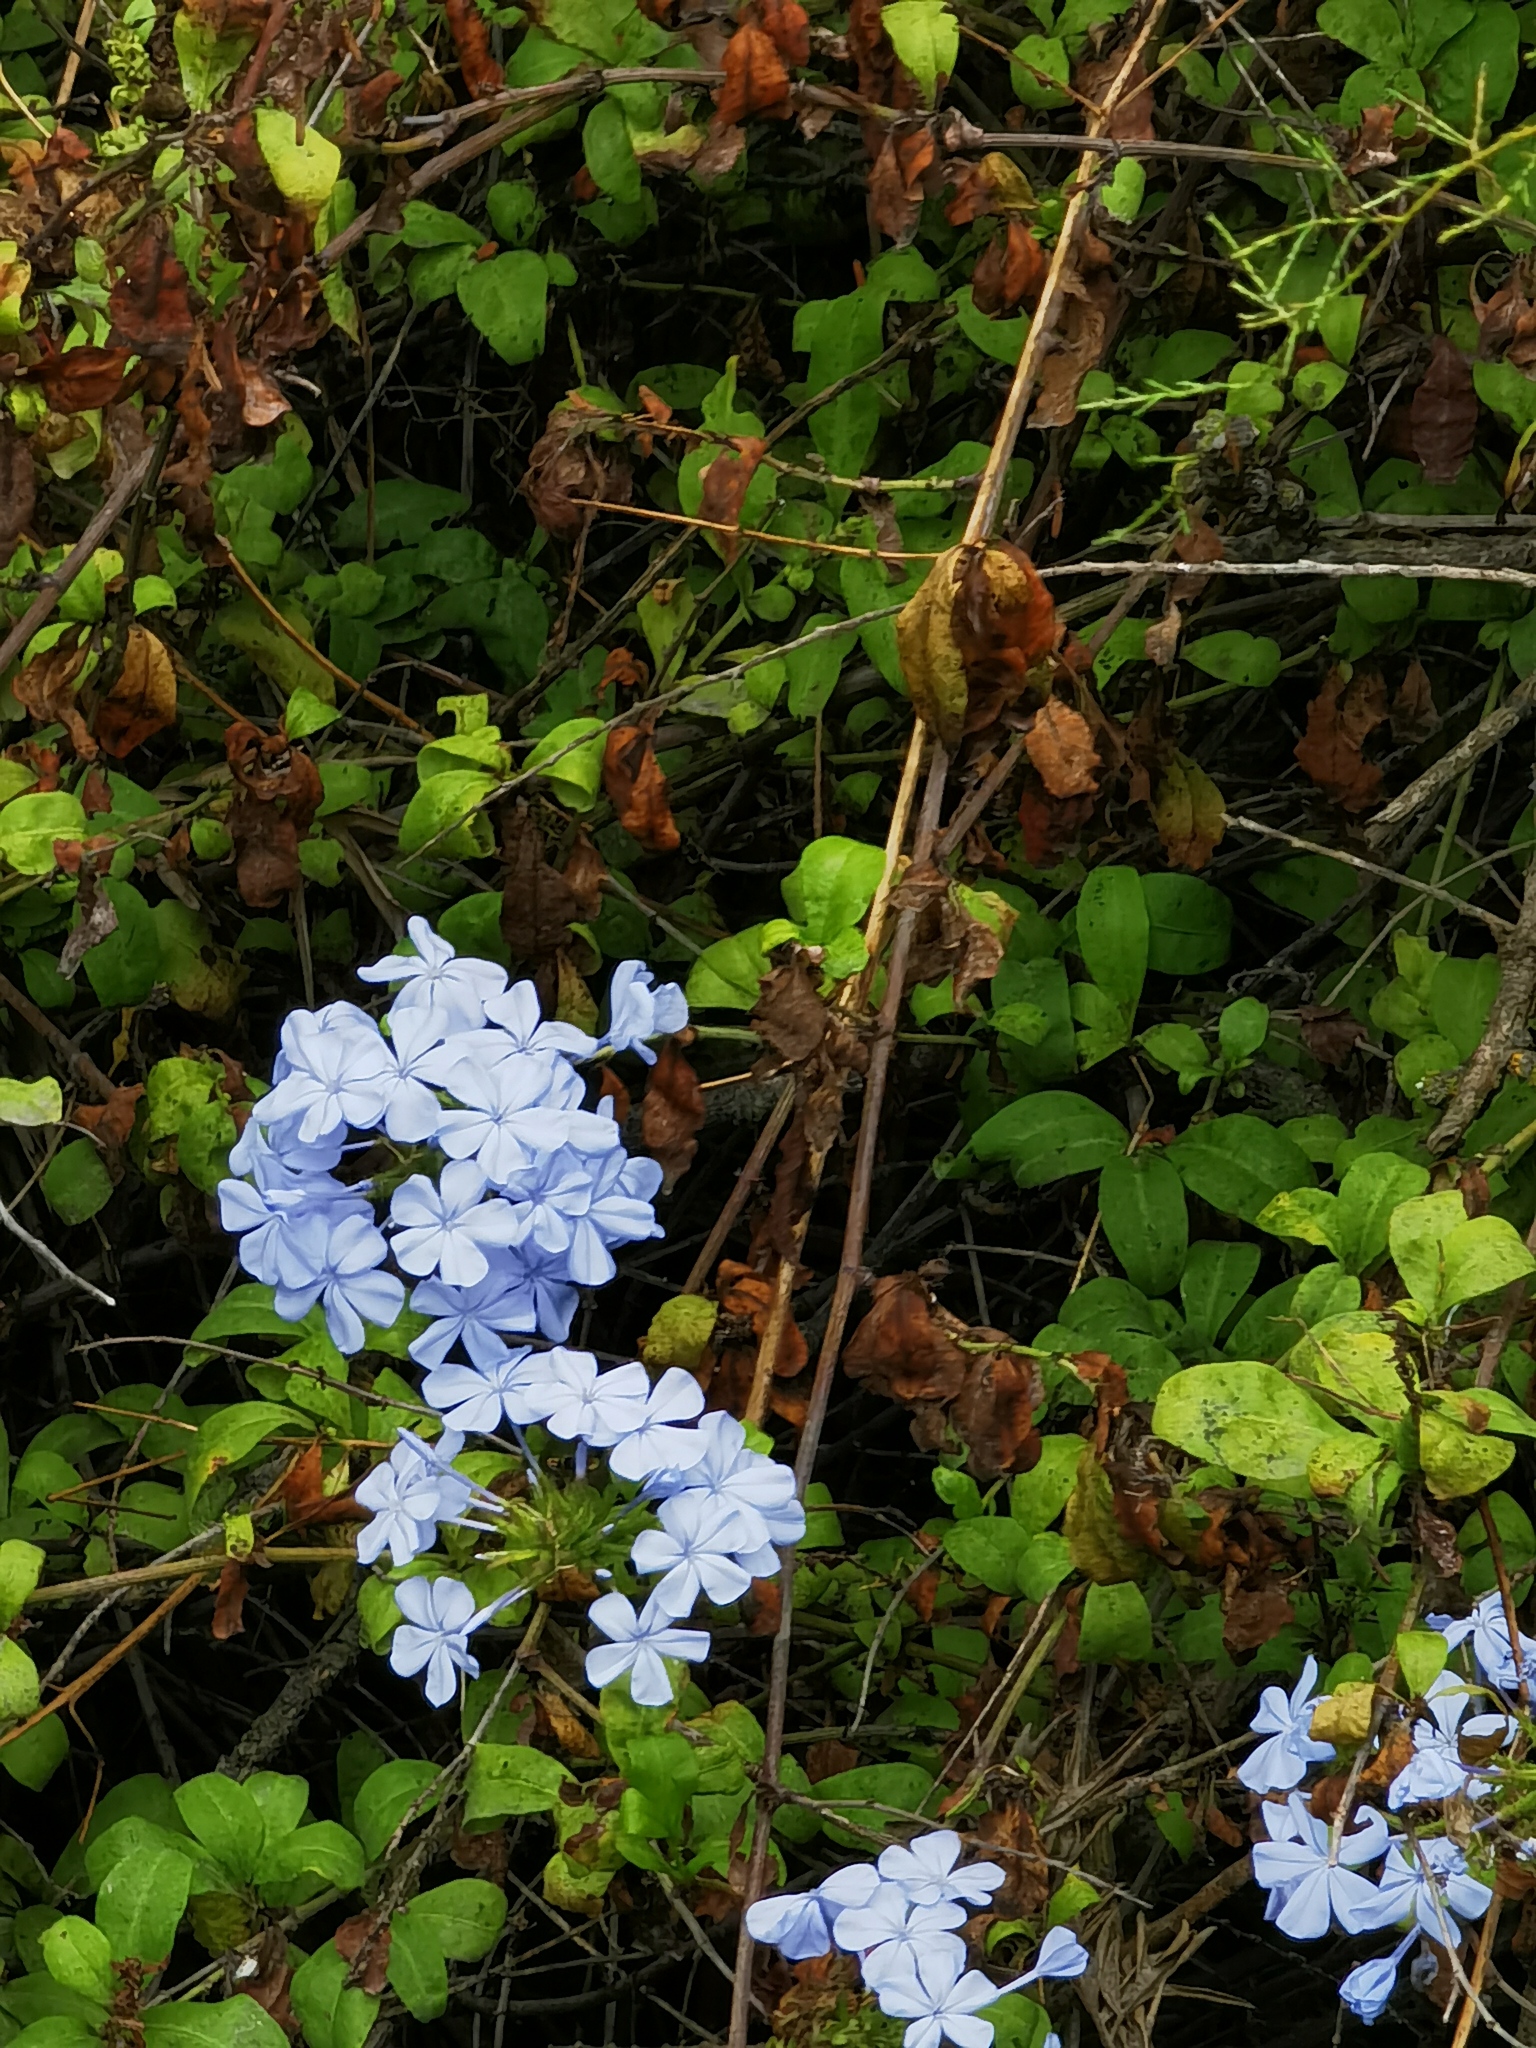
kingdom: Plantae
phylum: Tracheophyta
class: Magnoliopsida
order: Caryophyllales
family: Plumbaginaceae
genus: Plumbago
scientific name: Plumbago auriculata
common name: Cape leadwort
